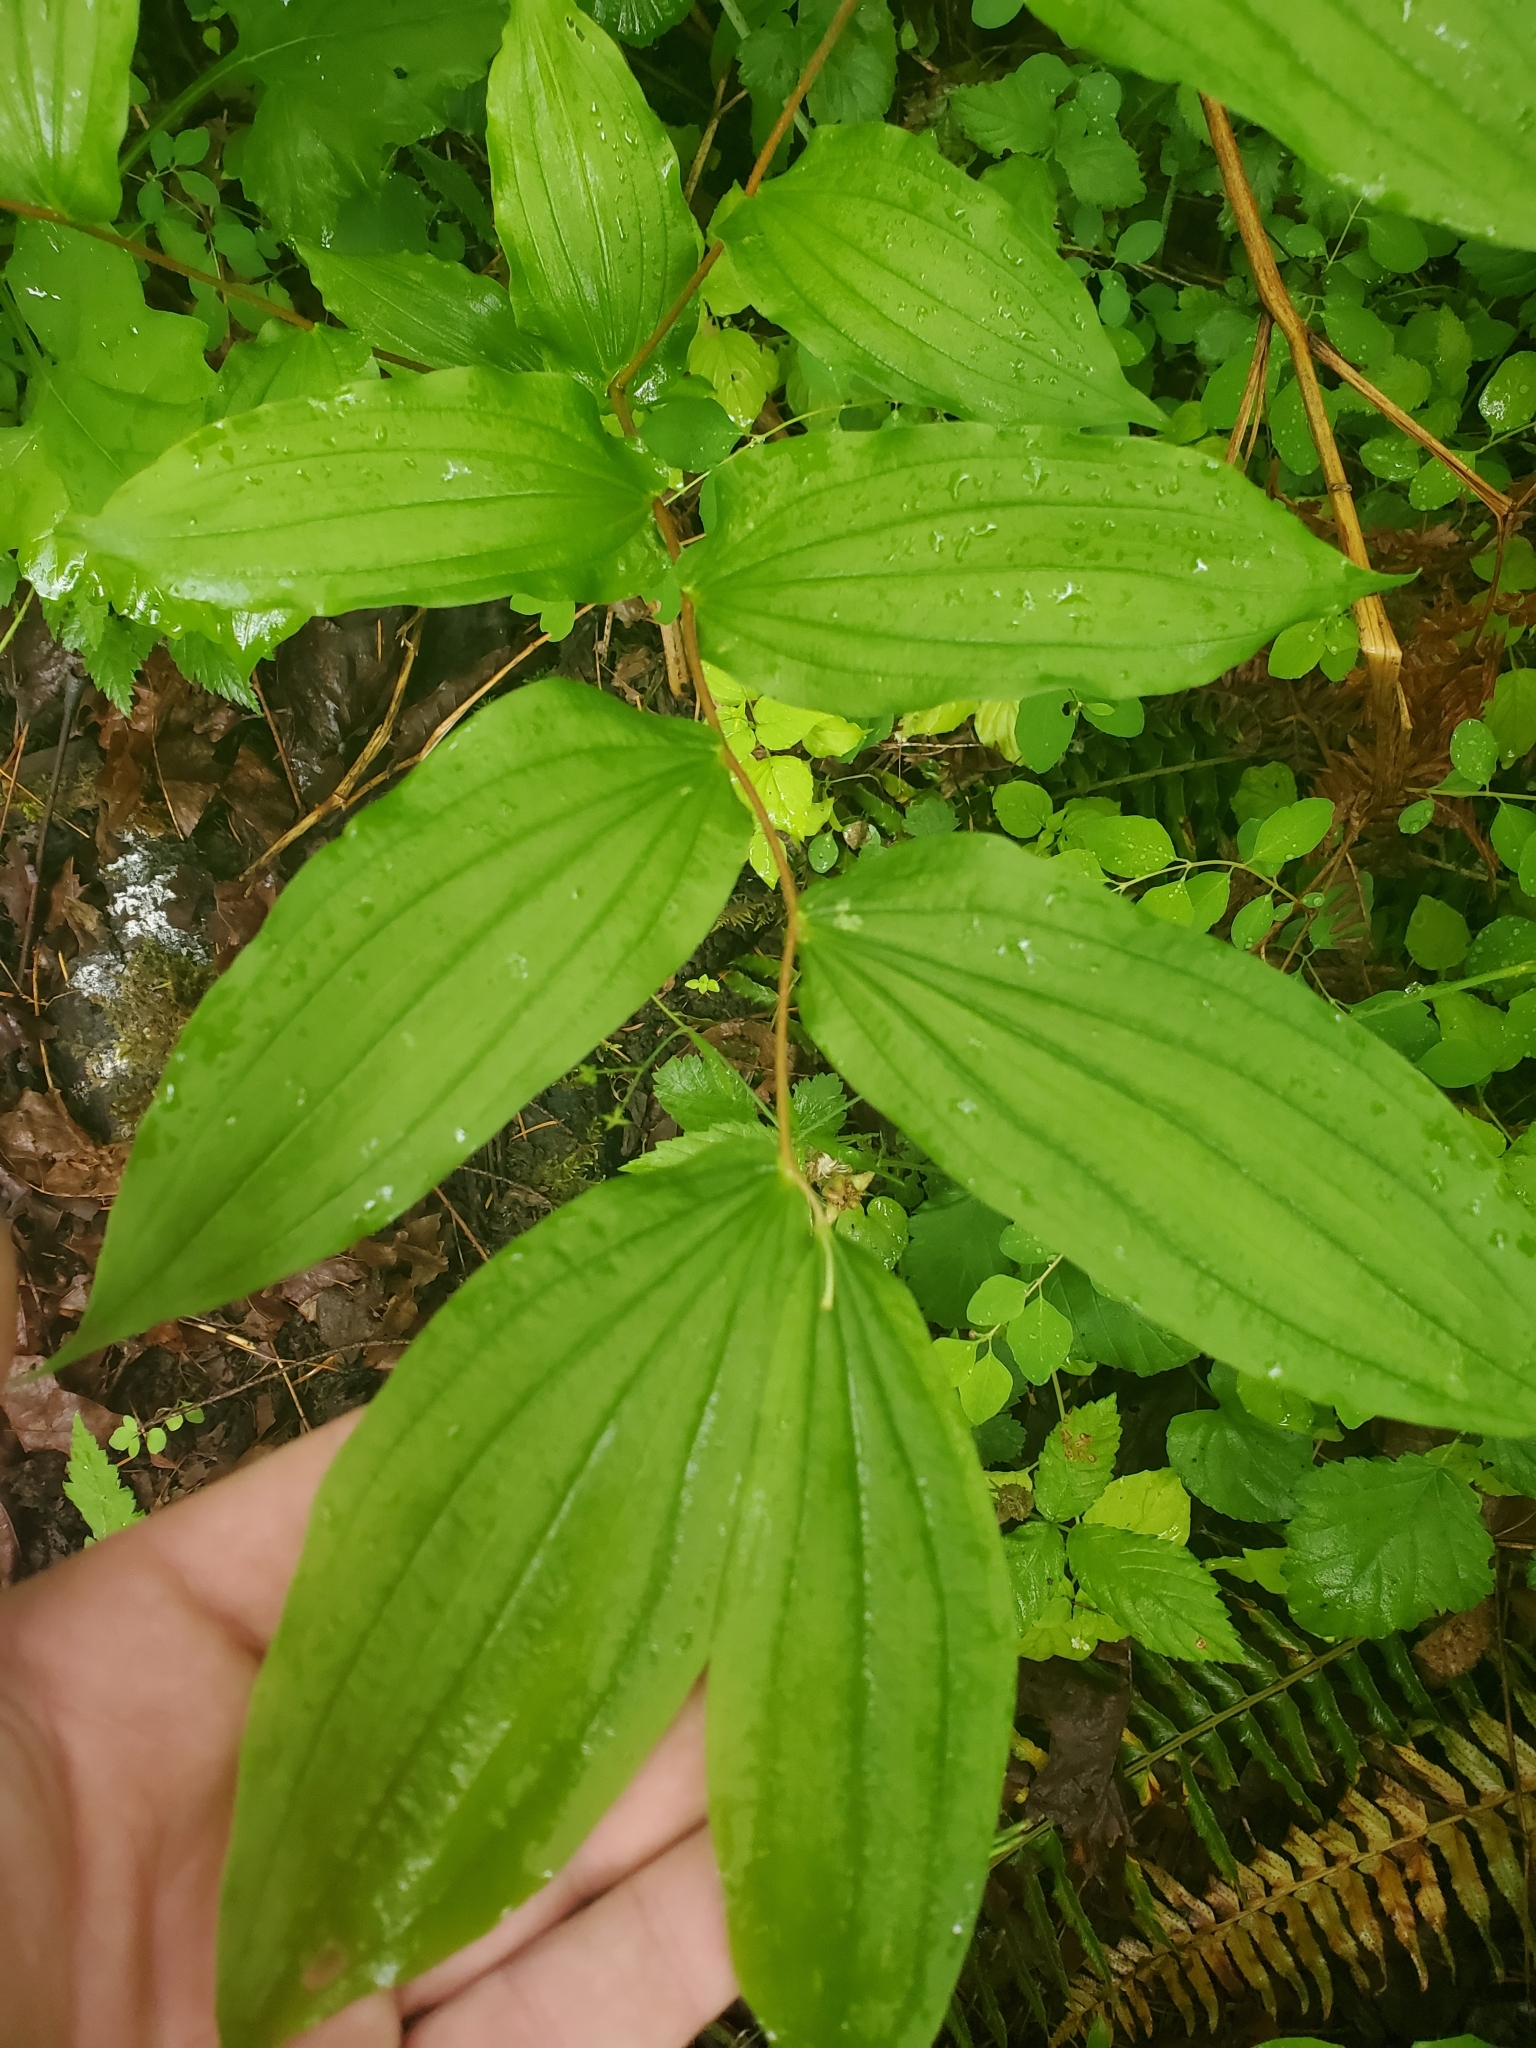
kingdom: Plantae
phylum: Tracheophyta
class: Liliopsida
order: Liliales
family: Liliaceae
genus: Prosartes
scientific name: Prosartes hookeri
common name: Fairy-bells
